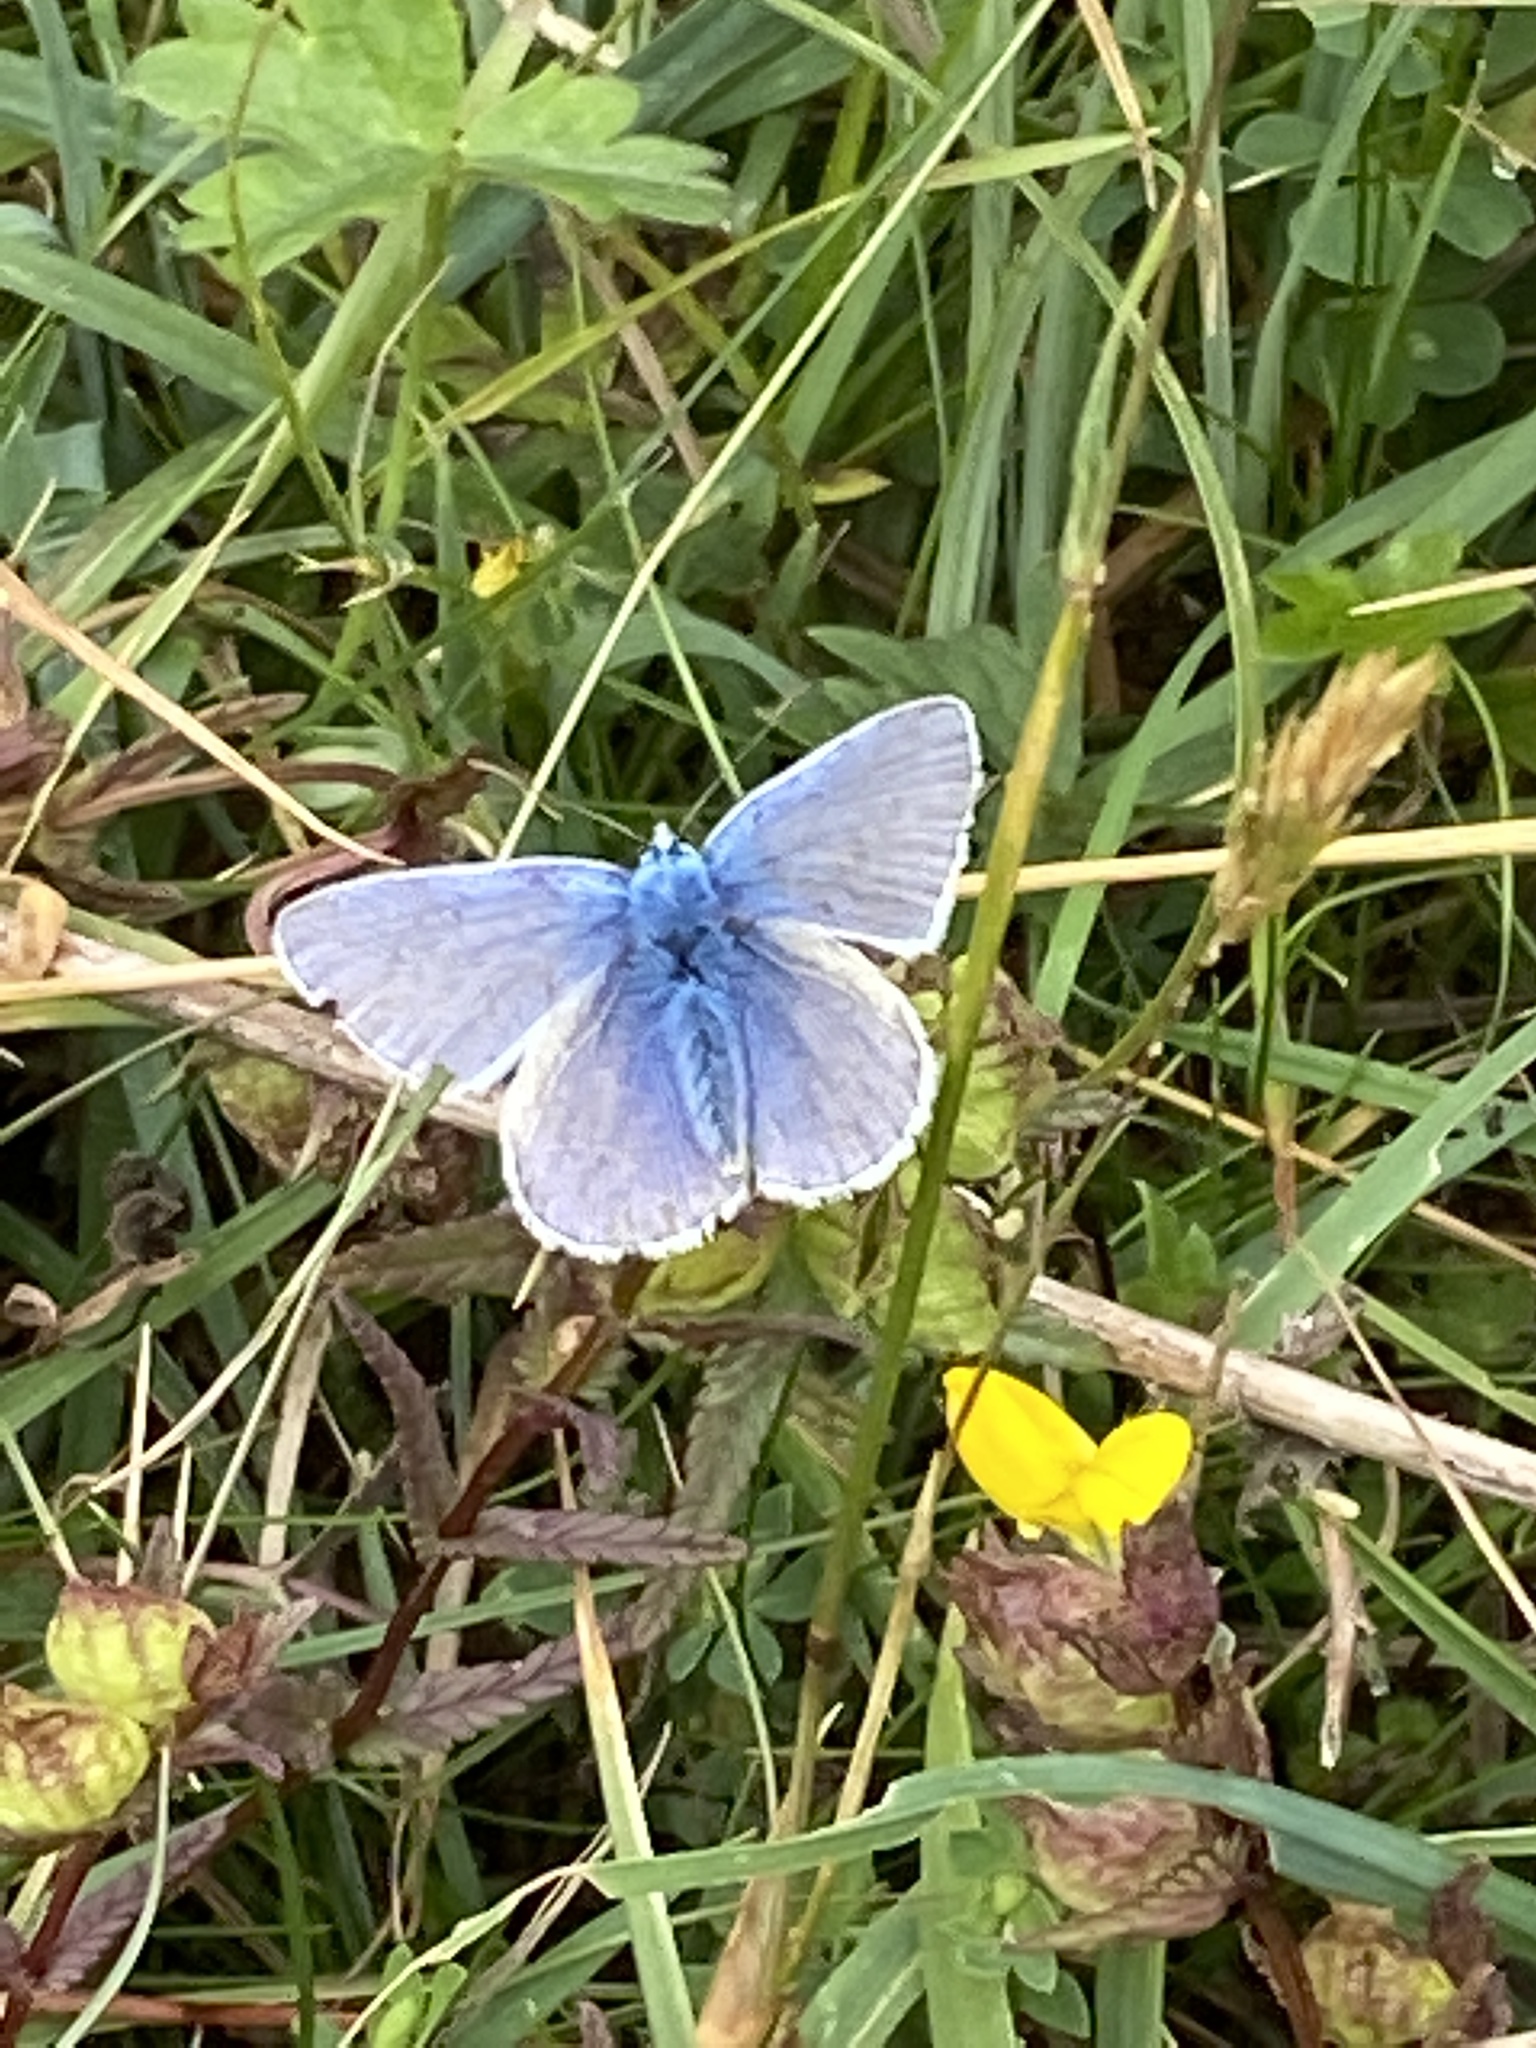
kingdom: Animalia
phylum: Arthropoda
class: Insecta
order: Lepidoptera
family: Lycaenidae
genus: Polyommatus
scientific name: Polyommatus icarus
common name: Common blue
